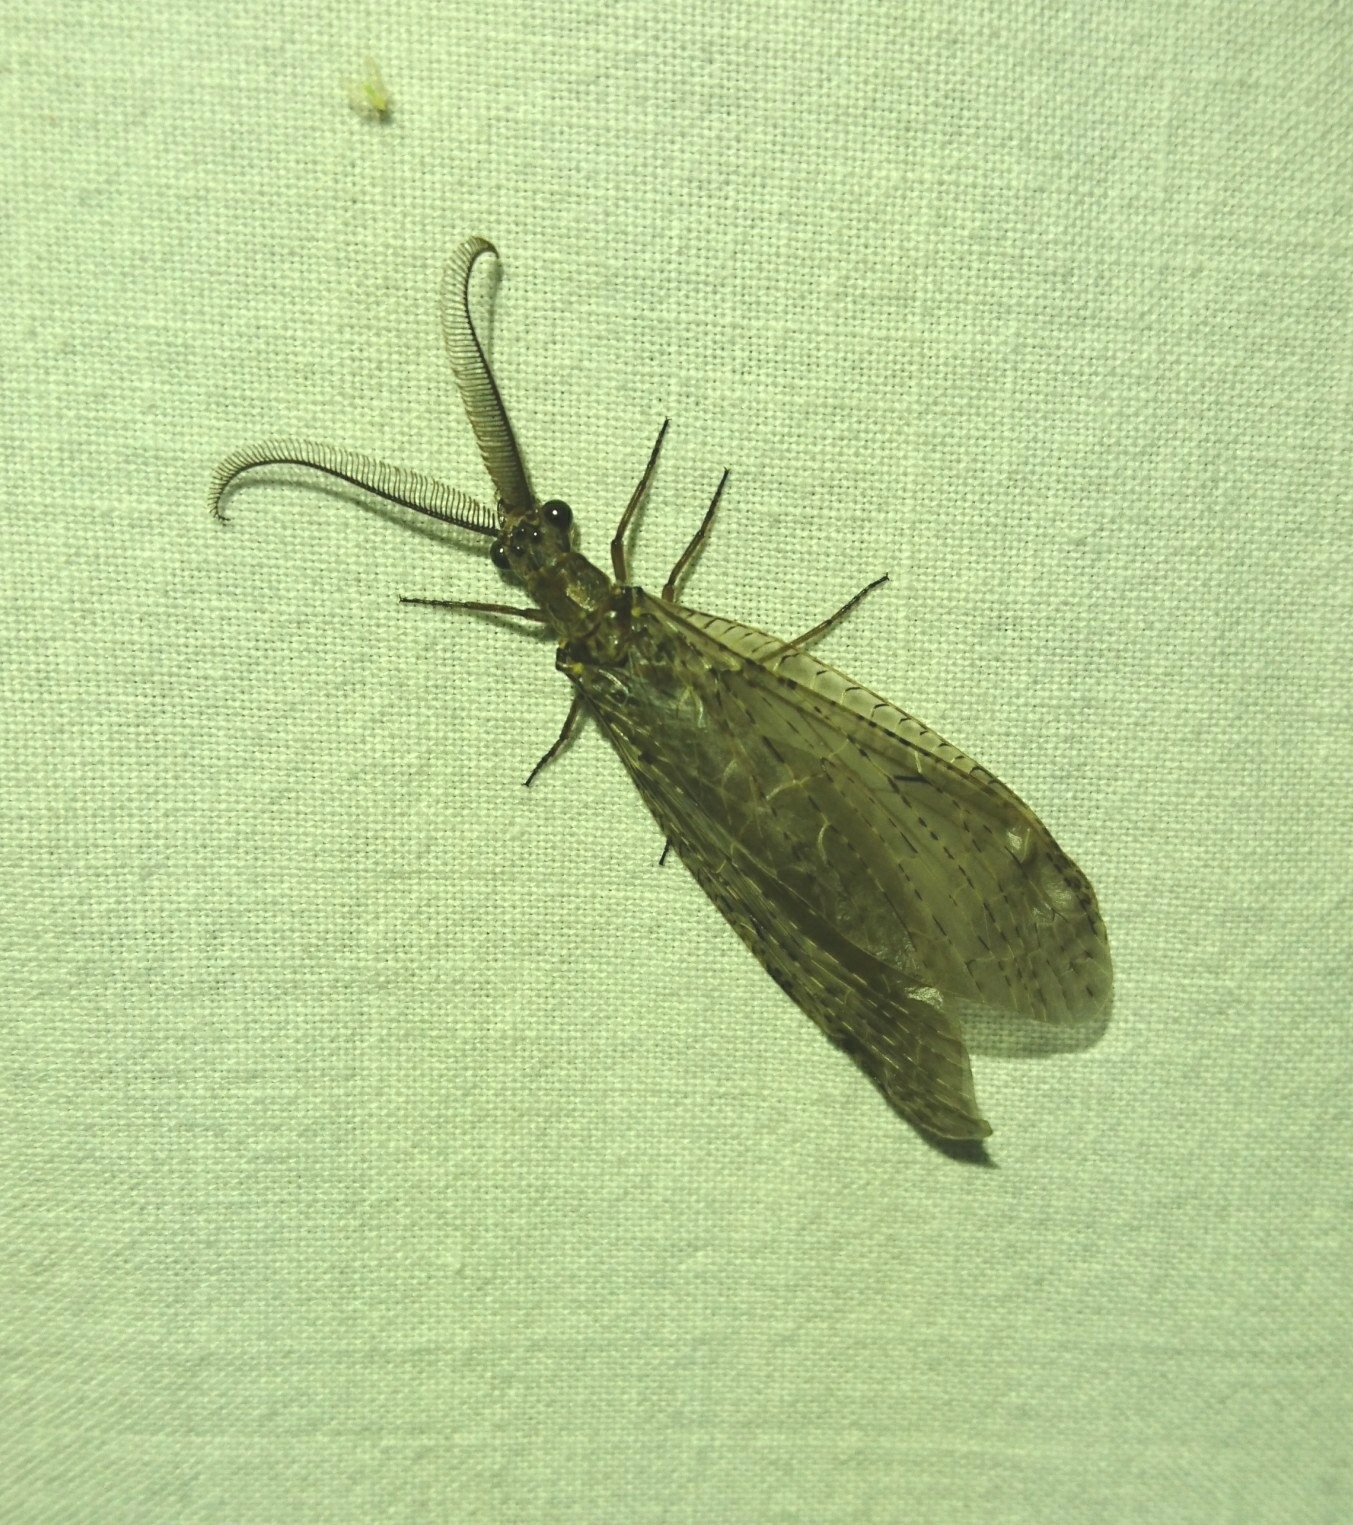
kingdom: Animalia
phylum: Arthropoda
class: Insecta
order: Megaloptera
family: Corydalidae
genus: Chauliodes
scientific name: Chauliodes rastricornis
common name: Spring fishfly
